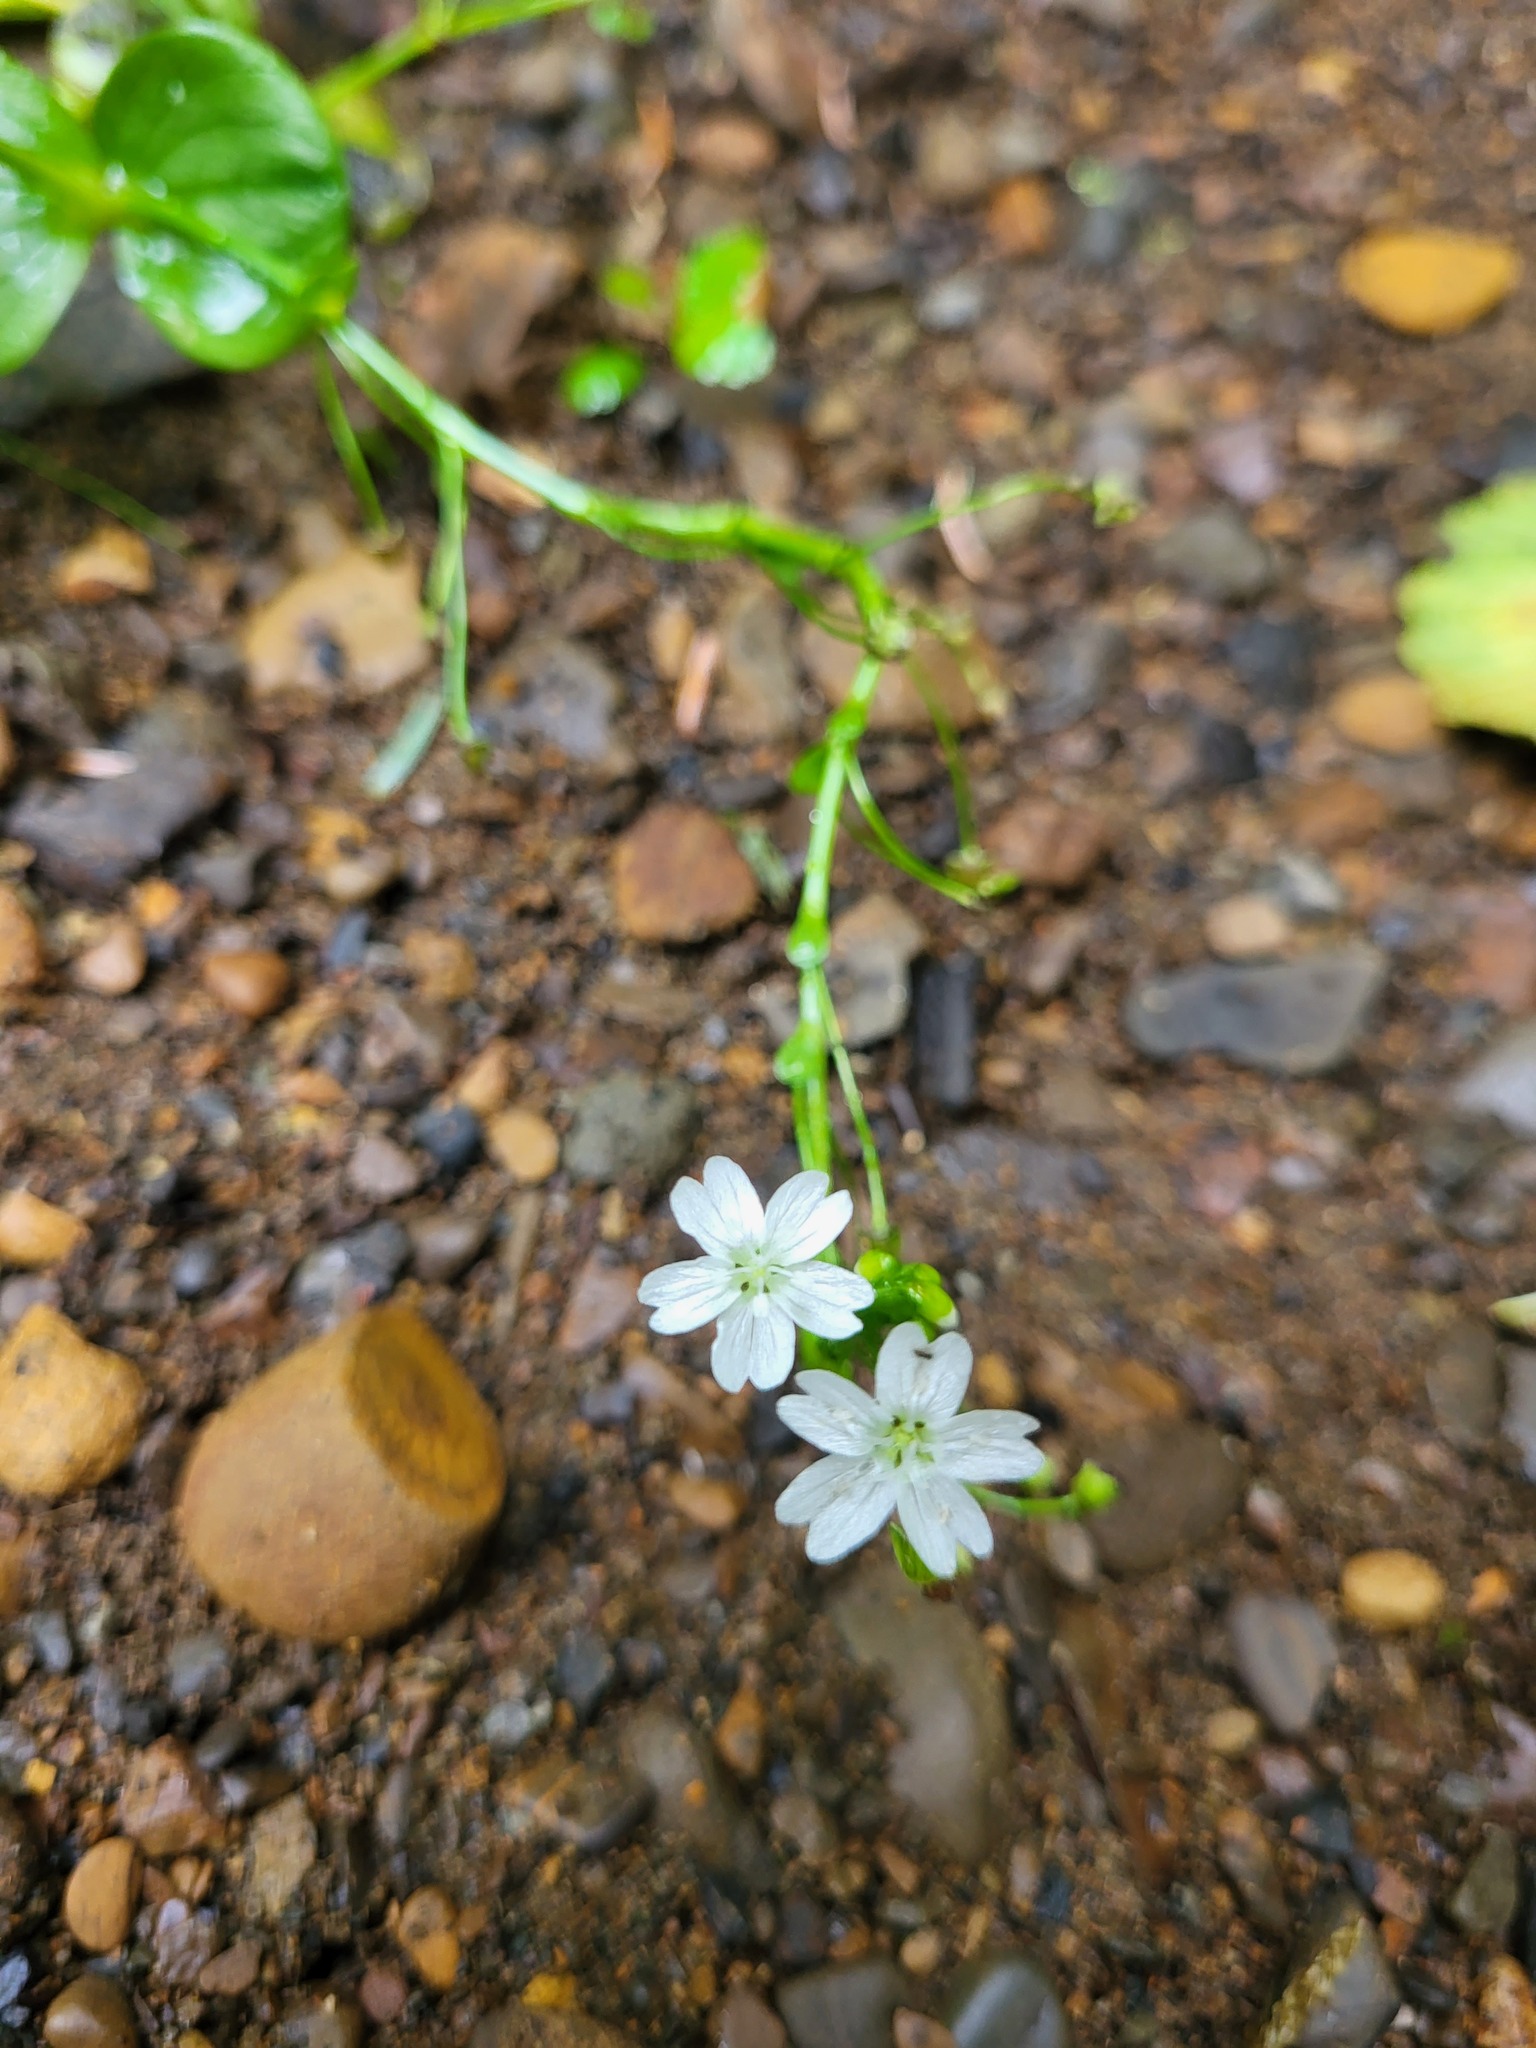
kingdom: Plantae
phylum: Tracheophyta
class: Magnoliopsida
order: Caryophyllales
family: Montiaceae
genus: Claytonia
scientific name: Claytonia sibirica
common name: Pink purslane
